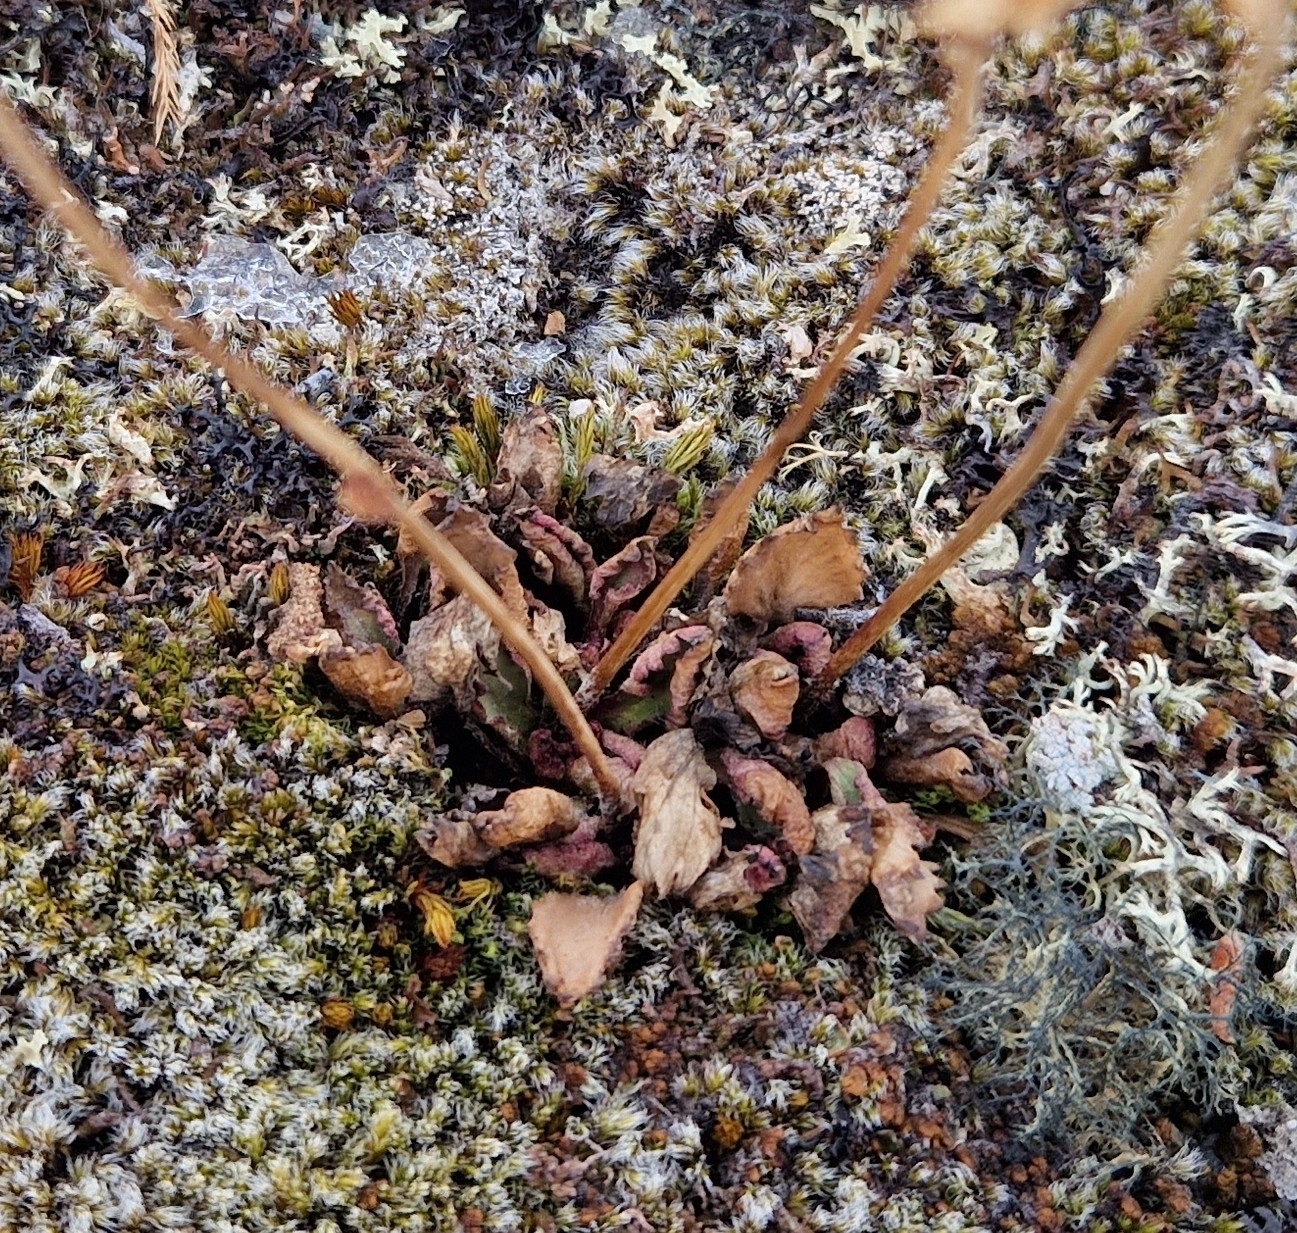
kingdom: Plantae
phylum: Tracheophyta
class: Magnoliopsida
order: Saxifragales
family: Saxifragaceae
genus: Micranthes
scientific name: Micranthes nivalis
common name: Alpine saxifrage
